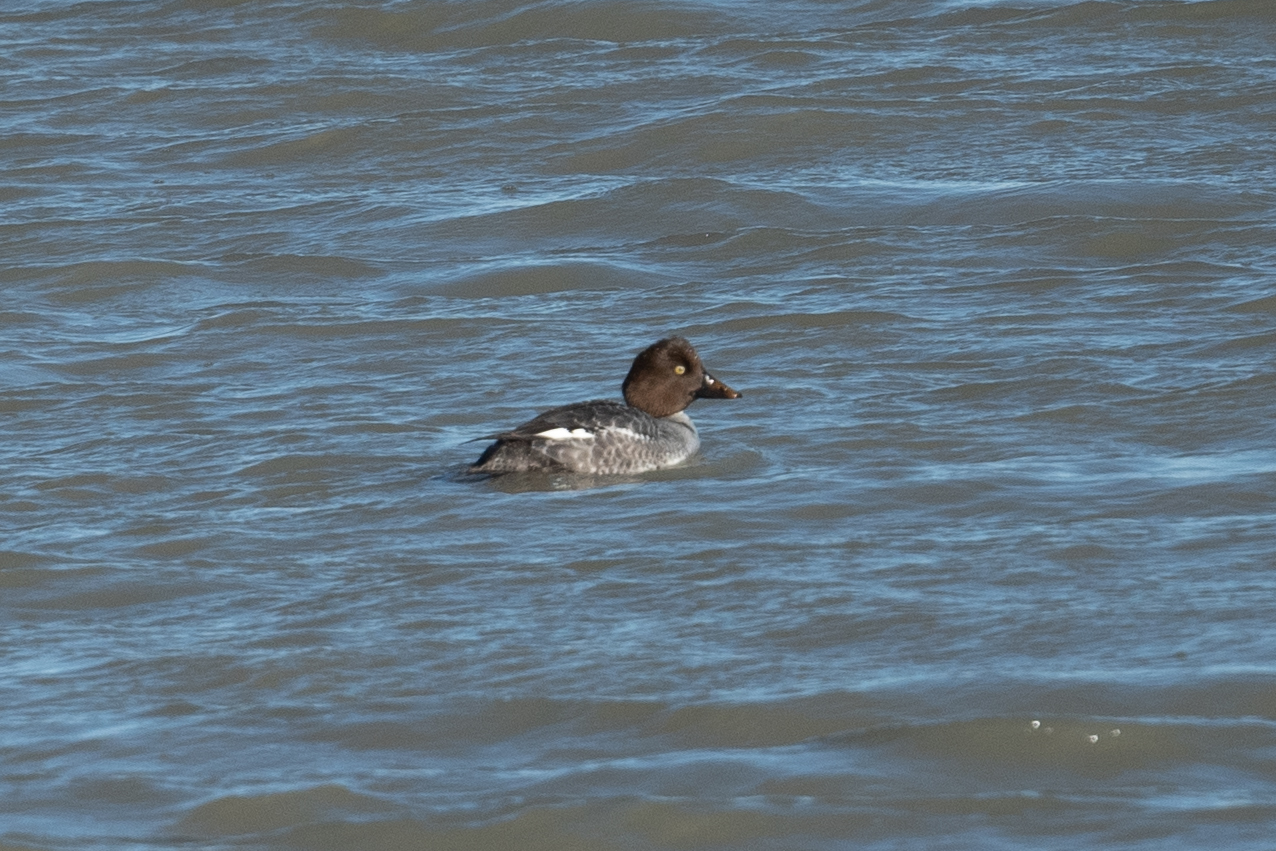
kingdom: Animalia
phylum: Chordata
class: Aves
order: Anseriformes
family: Anatidae
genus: Bucephala
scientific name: Bucephala clangula
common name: Common goldeneye
